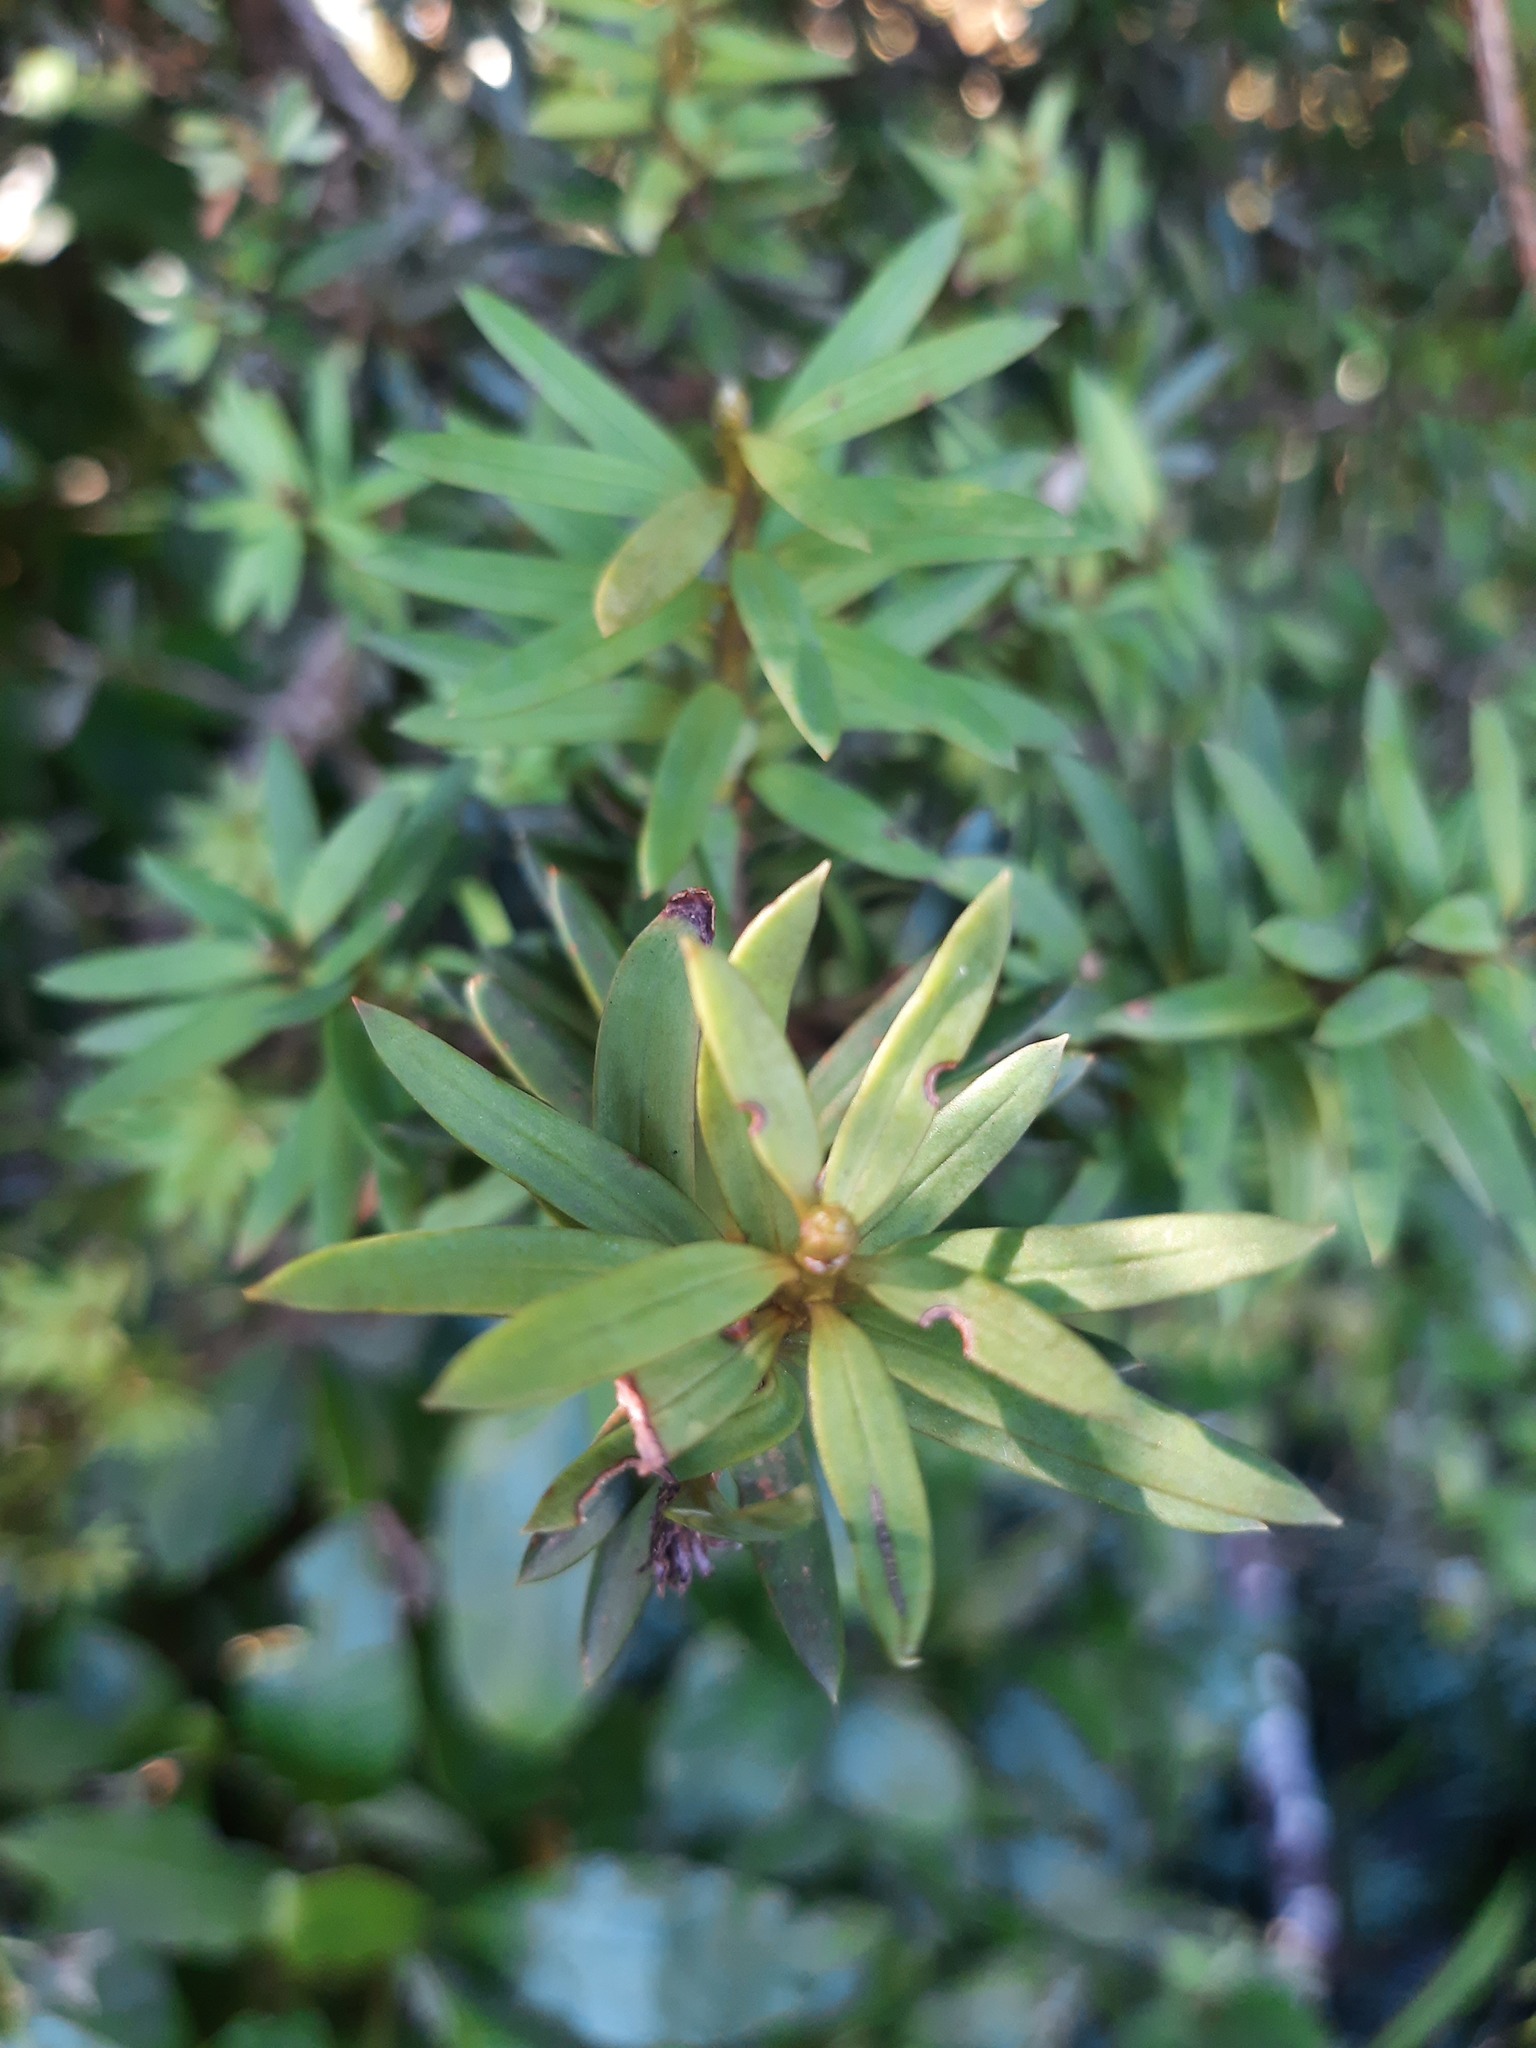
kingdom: Plantae
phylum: Tracheophyta
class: Pinopsida
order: Pinales
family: Podocarpaceae
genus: Podocarpus
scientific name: Podocarpus laetus
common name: Hall's totara
